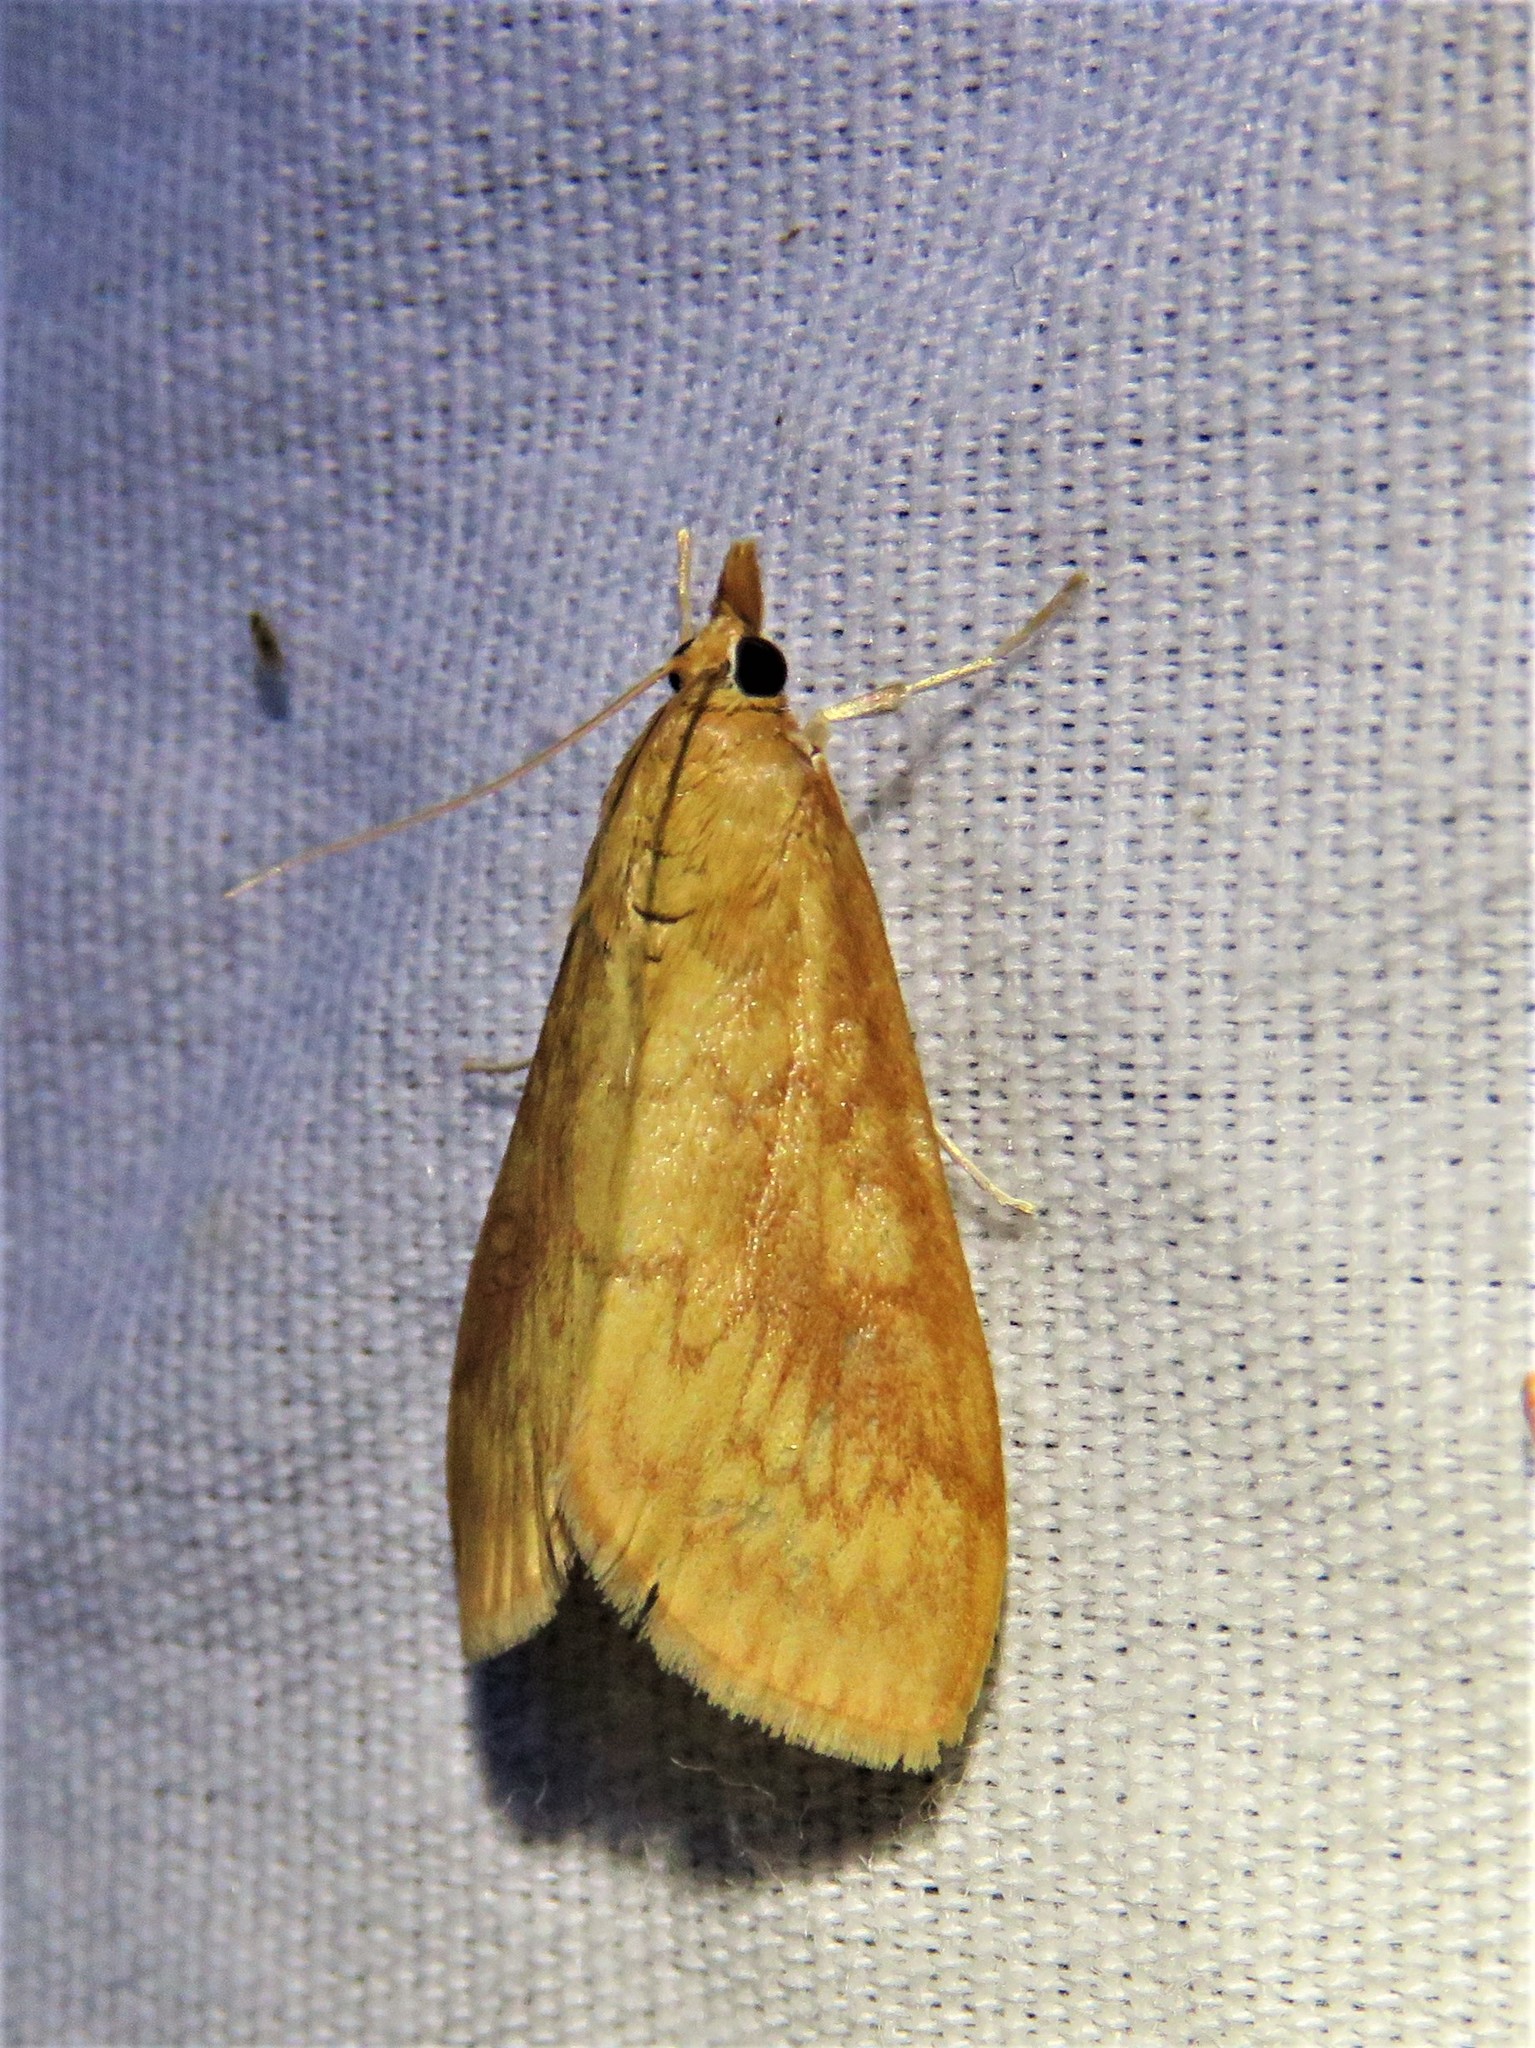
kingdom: Animalia
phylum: Arthropoda
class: Insecta
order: Lepidoptera
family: Crambidae
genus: Ostrinia
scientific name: Ostrinia penitalis
